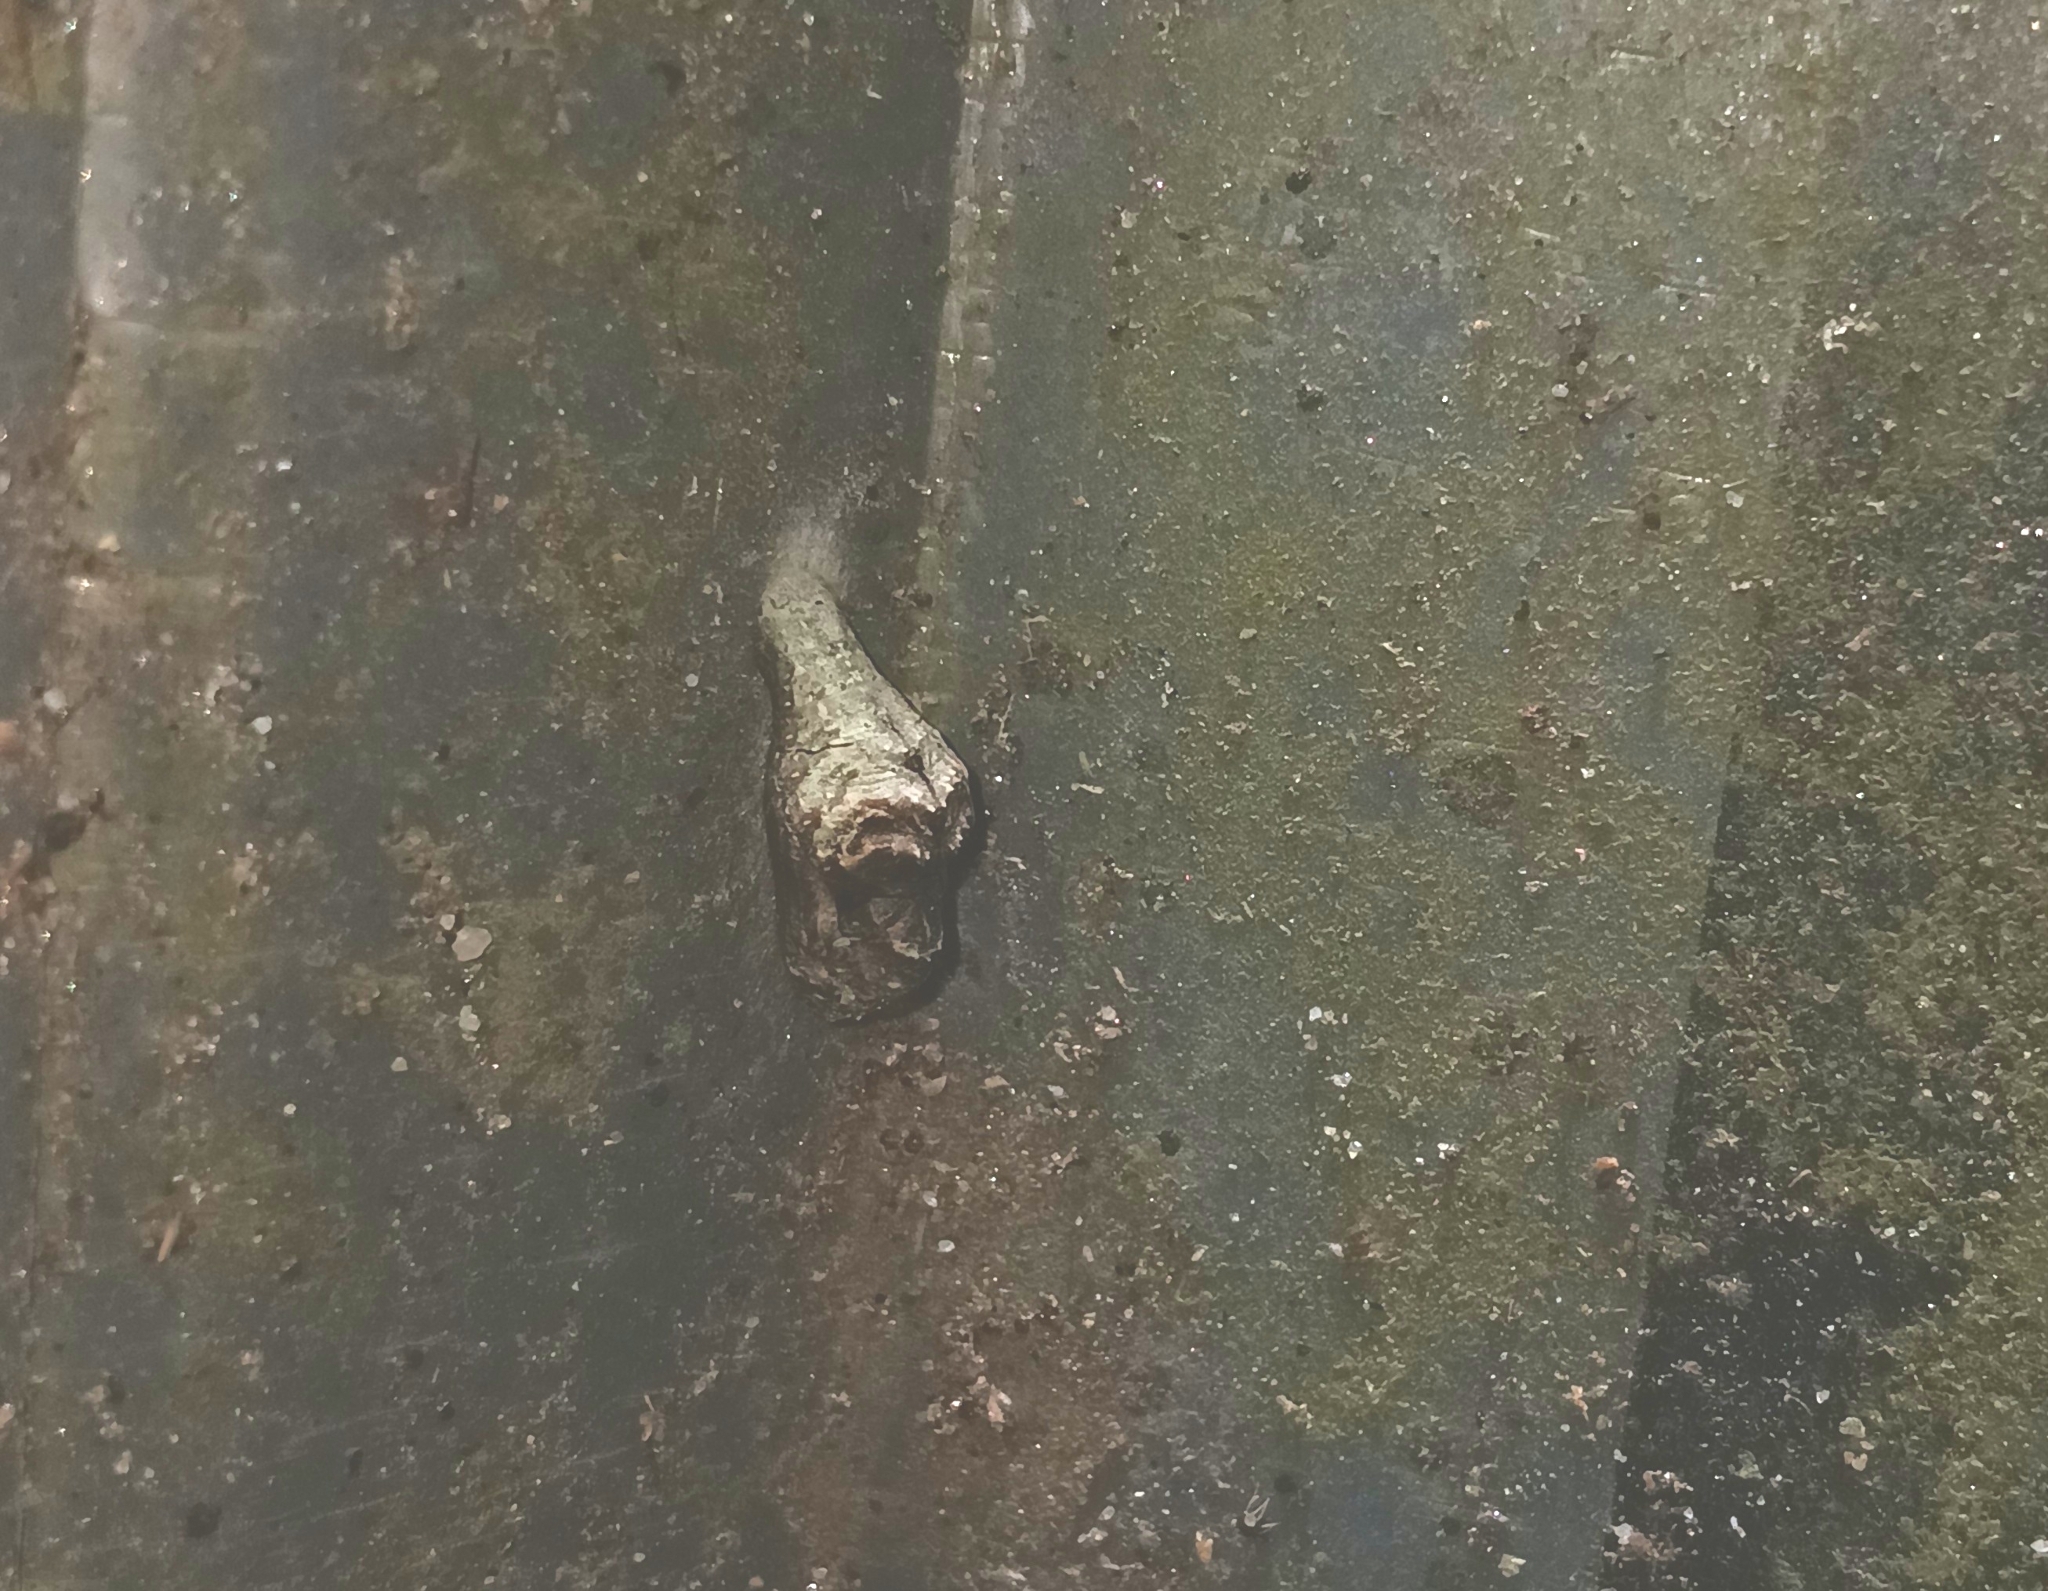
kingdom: Animalia
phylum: Arthropoda
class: Insecta
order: Lepidoptera
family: Lycaenidae
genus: Tajuria
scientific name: Tajuria cippus
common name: Peacock royal
